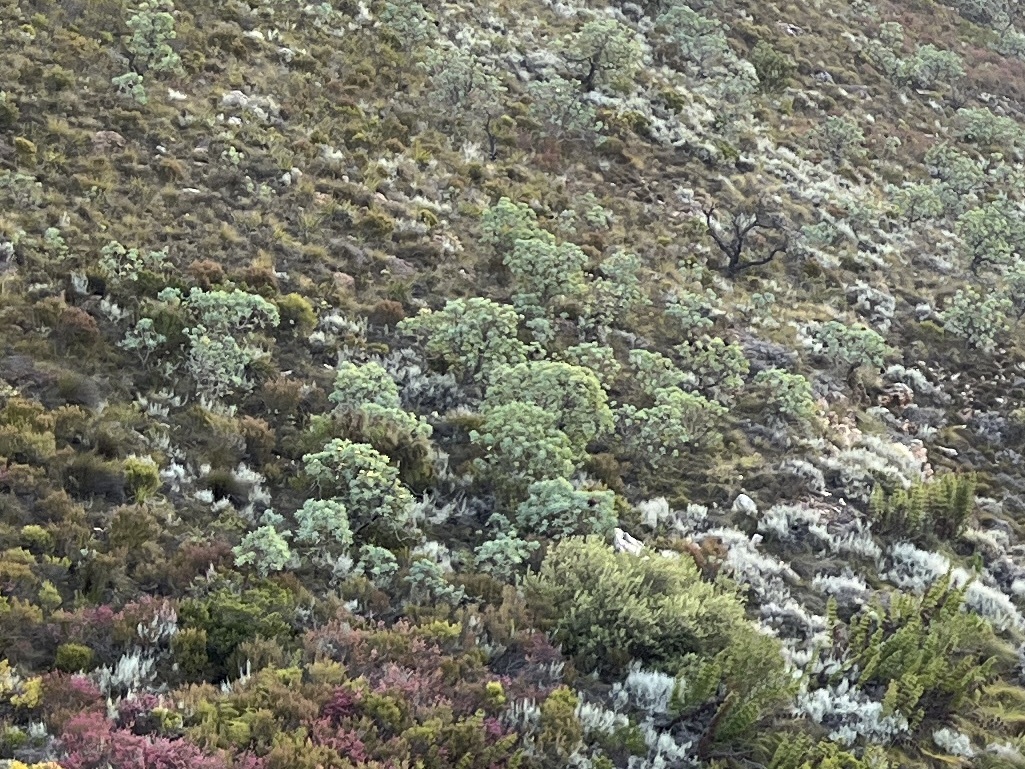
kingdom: Plantae
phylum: Tracheophyta
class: Magnoliopsida
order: Proteales
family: Proteaceae
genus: Protea
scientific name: Protea nitida
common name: Tree protea
